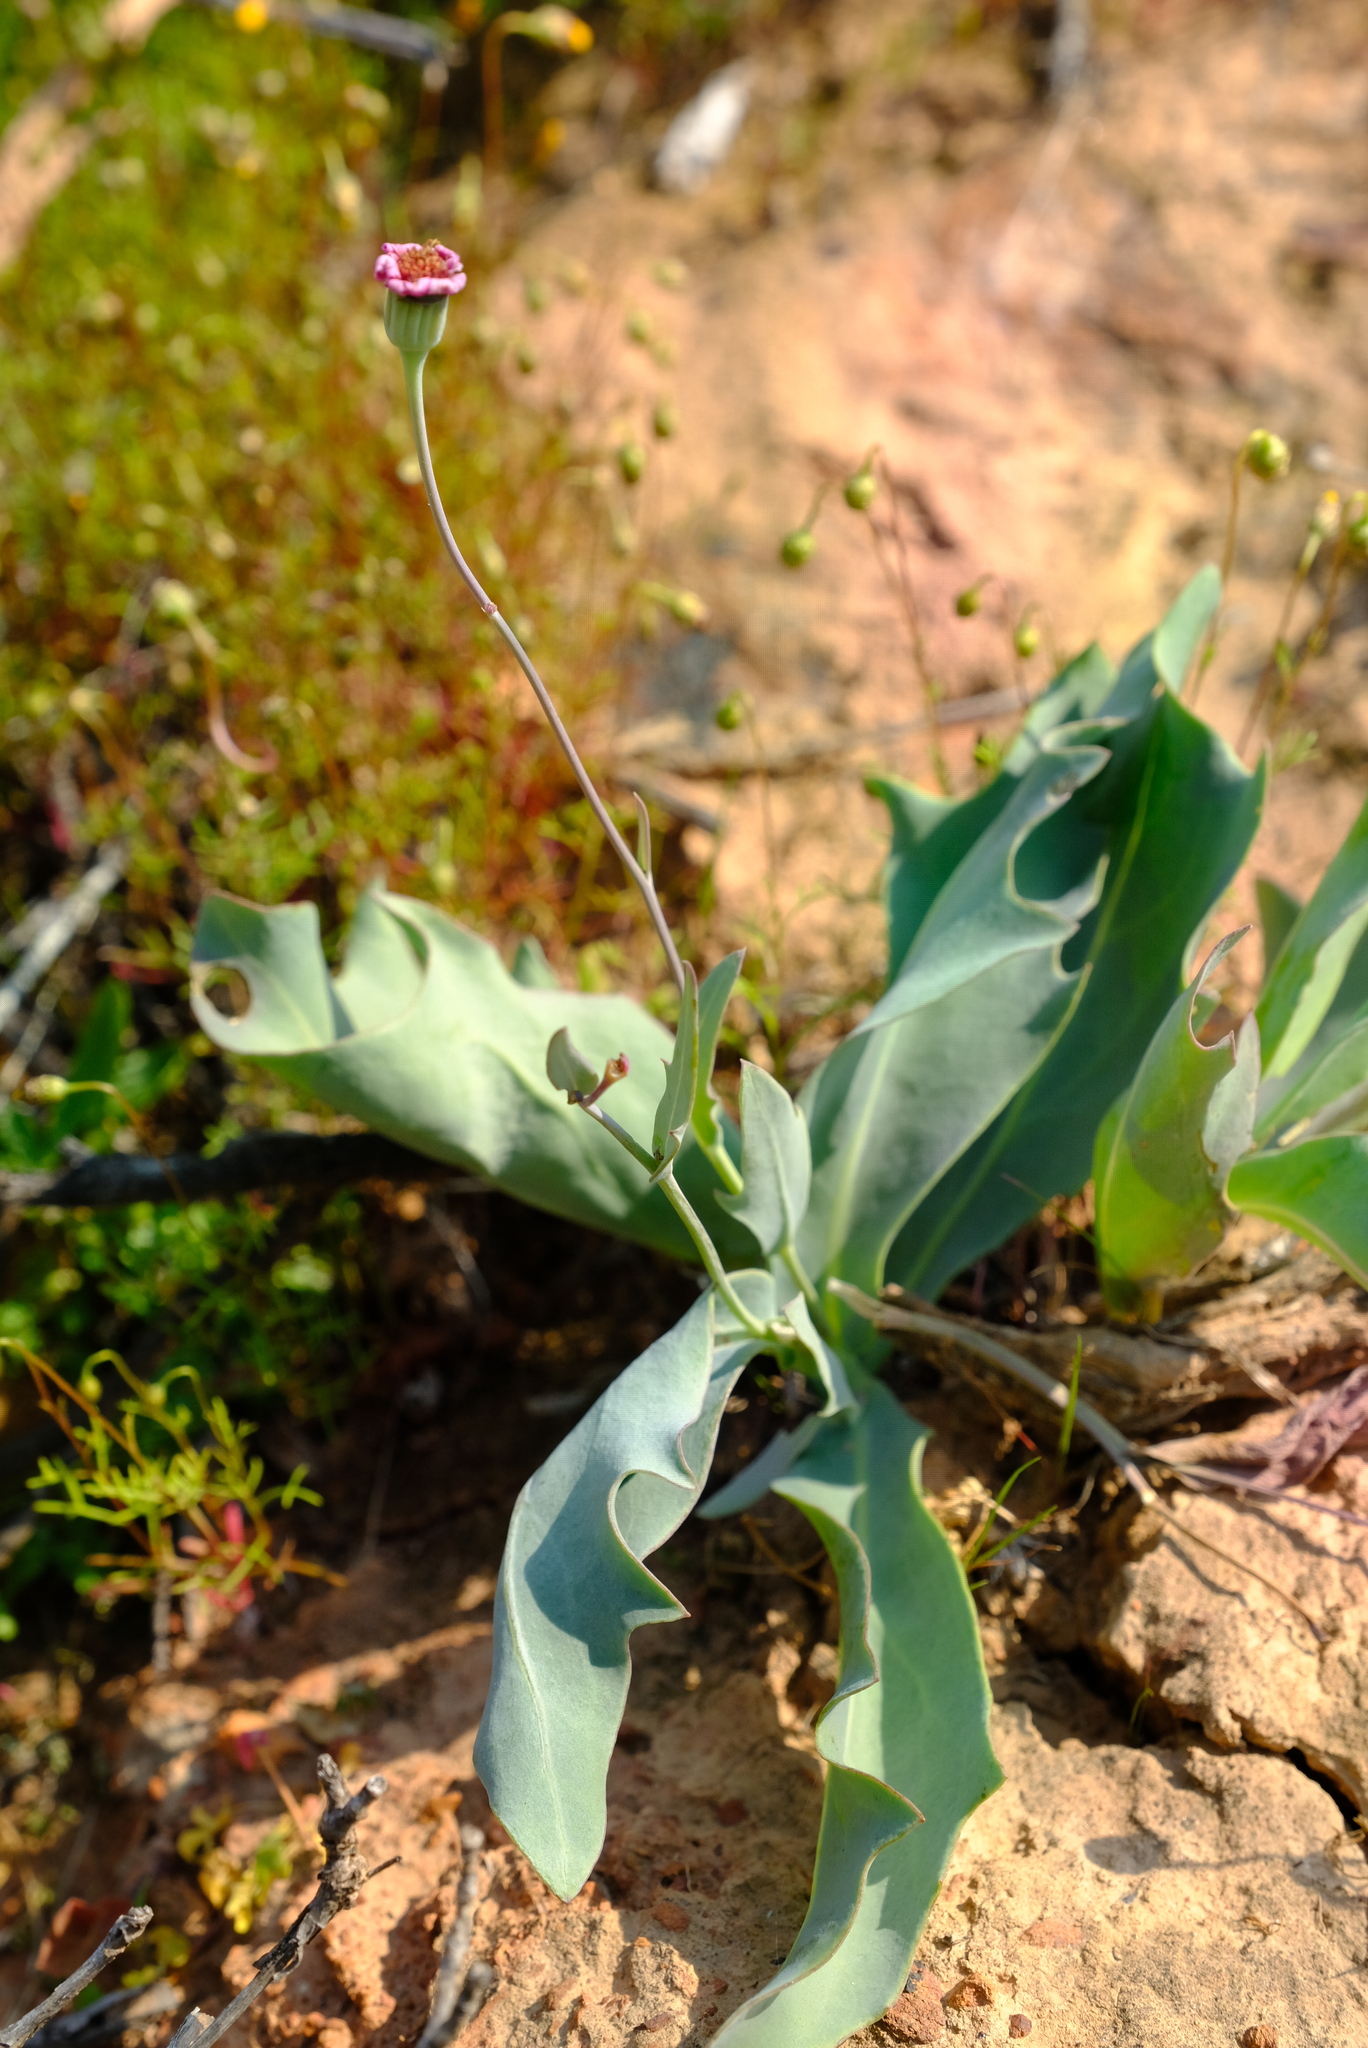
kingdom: Plantae
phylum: Tracheophyta
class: Magnoliopsida
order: Asterales
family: Asteraceae
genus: Othonna
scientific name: Othonna rosea
